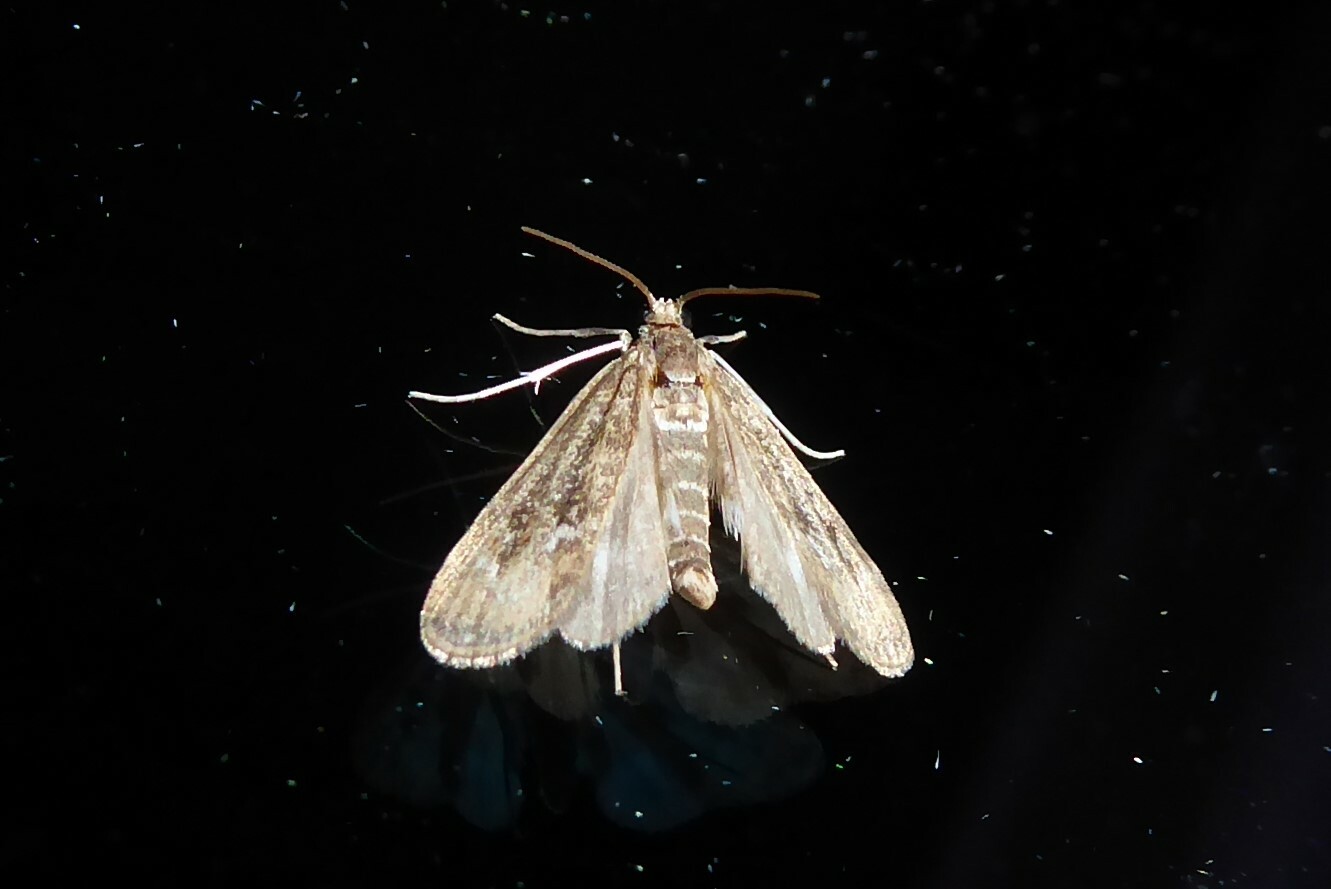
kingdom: Animalia
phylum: Arthropoda
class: Insecta
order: Lepidoptera
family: Crambidae
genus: Hygraula
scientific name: Hygraula nitens
